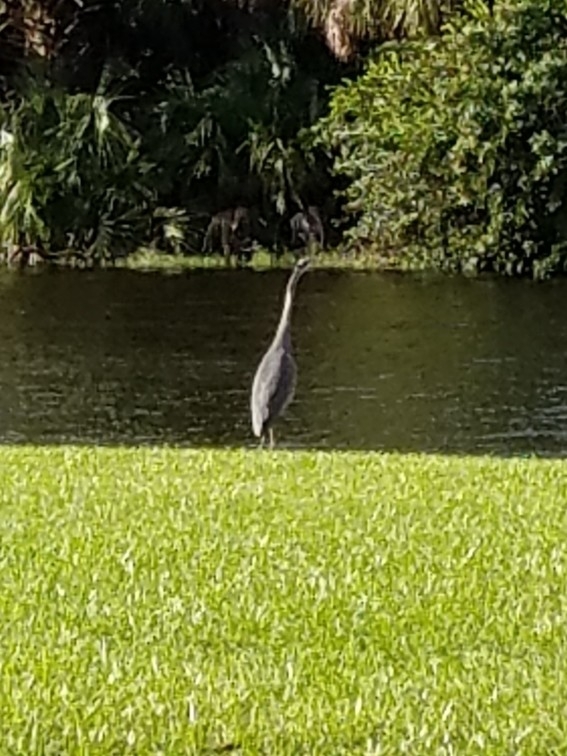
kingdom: Animalia
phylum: Chordata
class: Aves
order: Pelecaniformes
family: Ardeidae
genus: Ardea
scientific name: Ardea herodias
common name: Great blue heron
